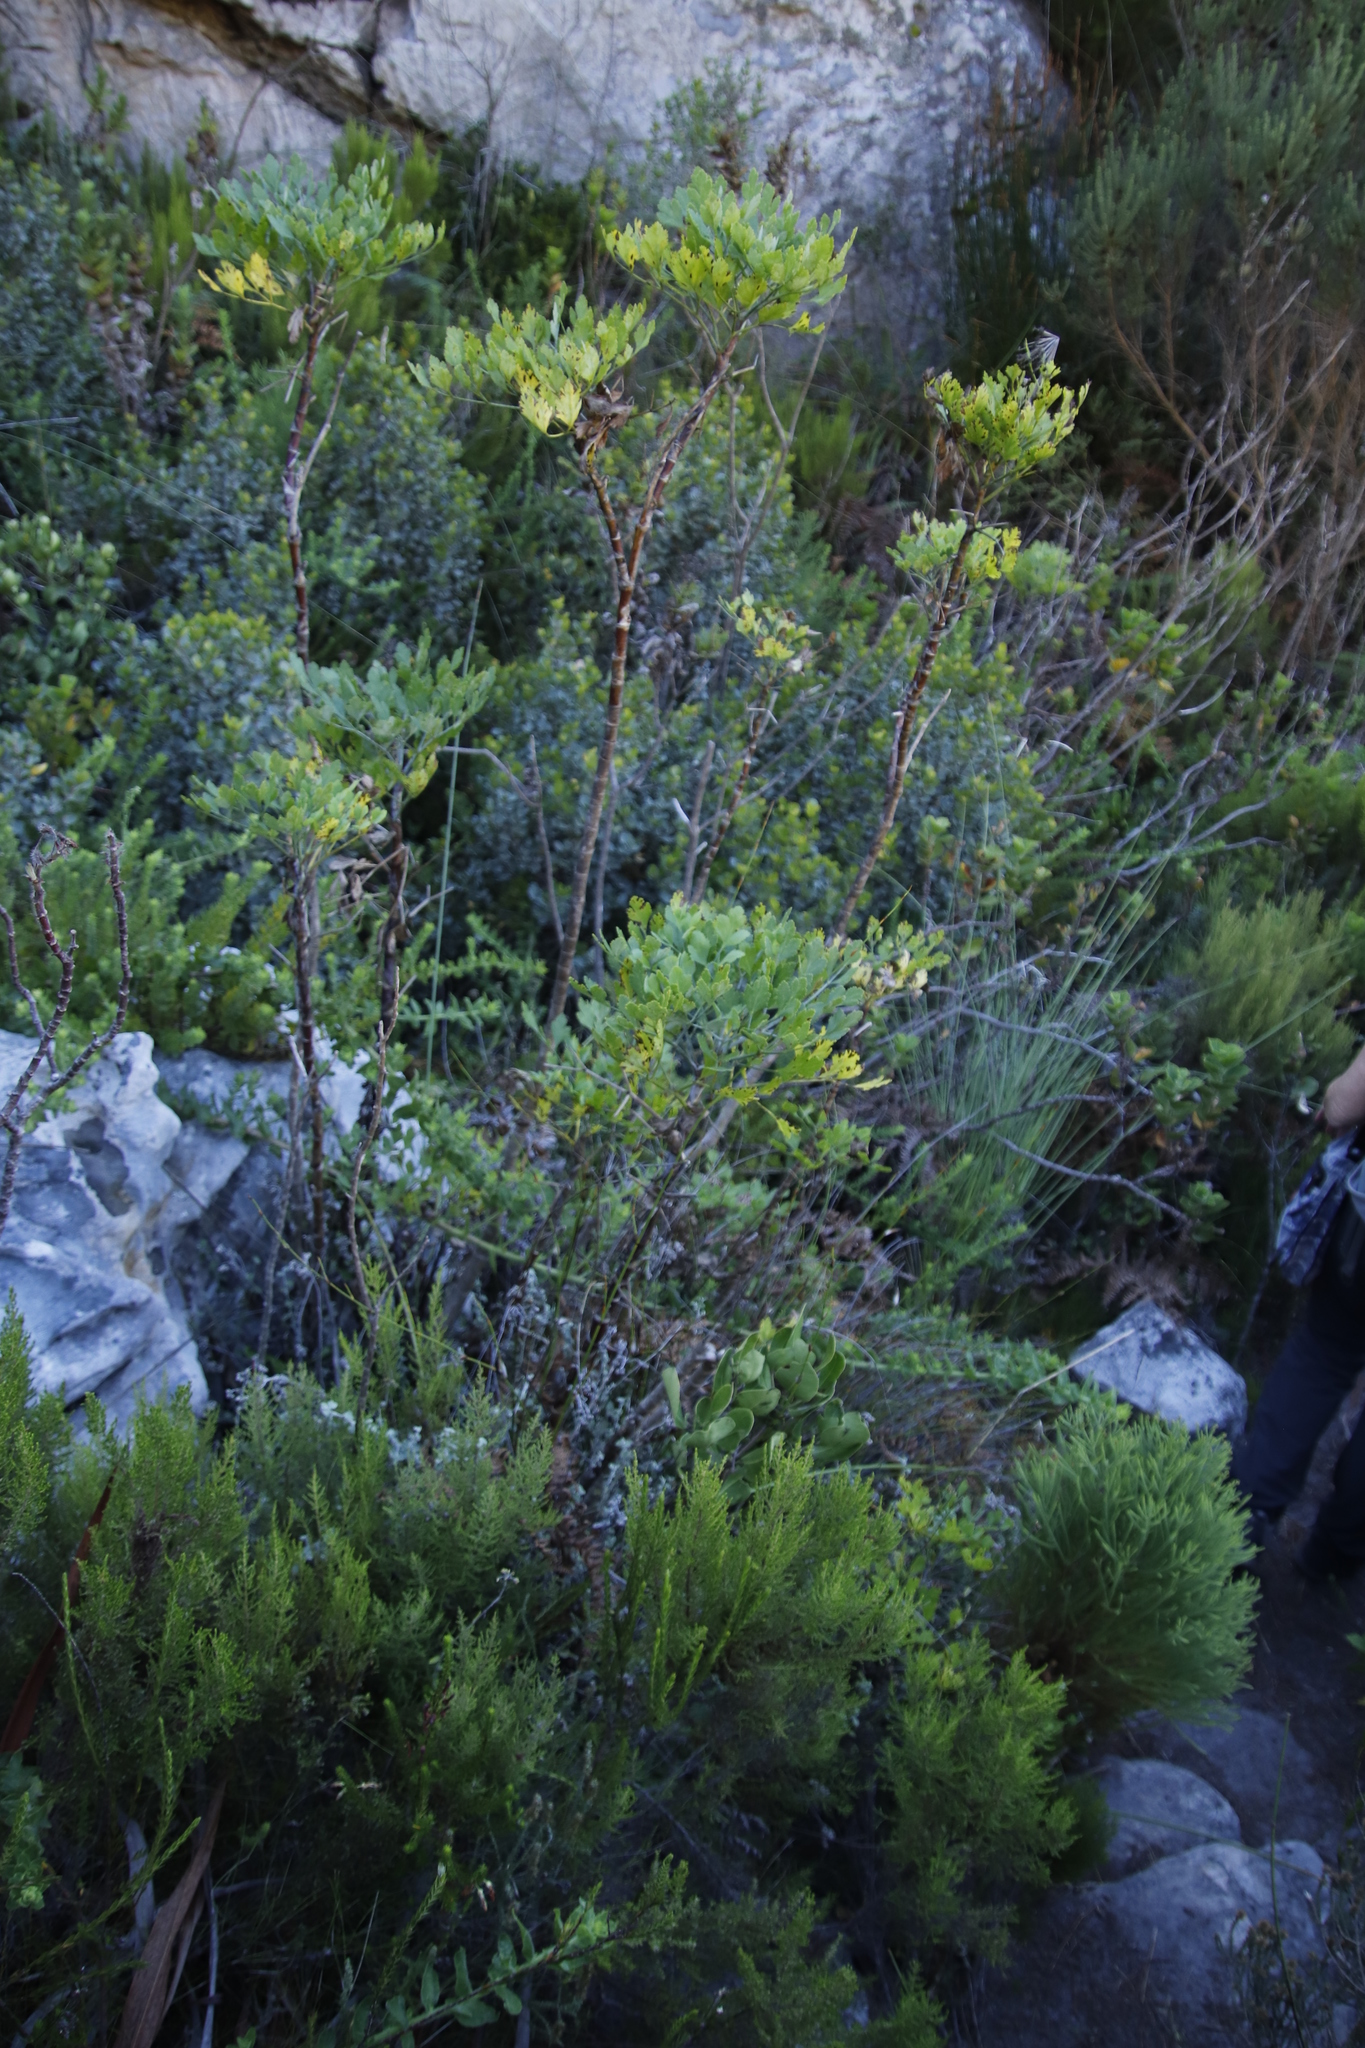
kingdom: Plantae
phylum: Tracheophyta
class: Magnoliopsida
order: Apiales
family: Apiaceae
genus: Notobubon
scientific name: Notobubon galbanum
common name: Blisterbush
